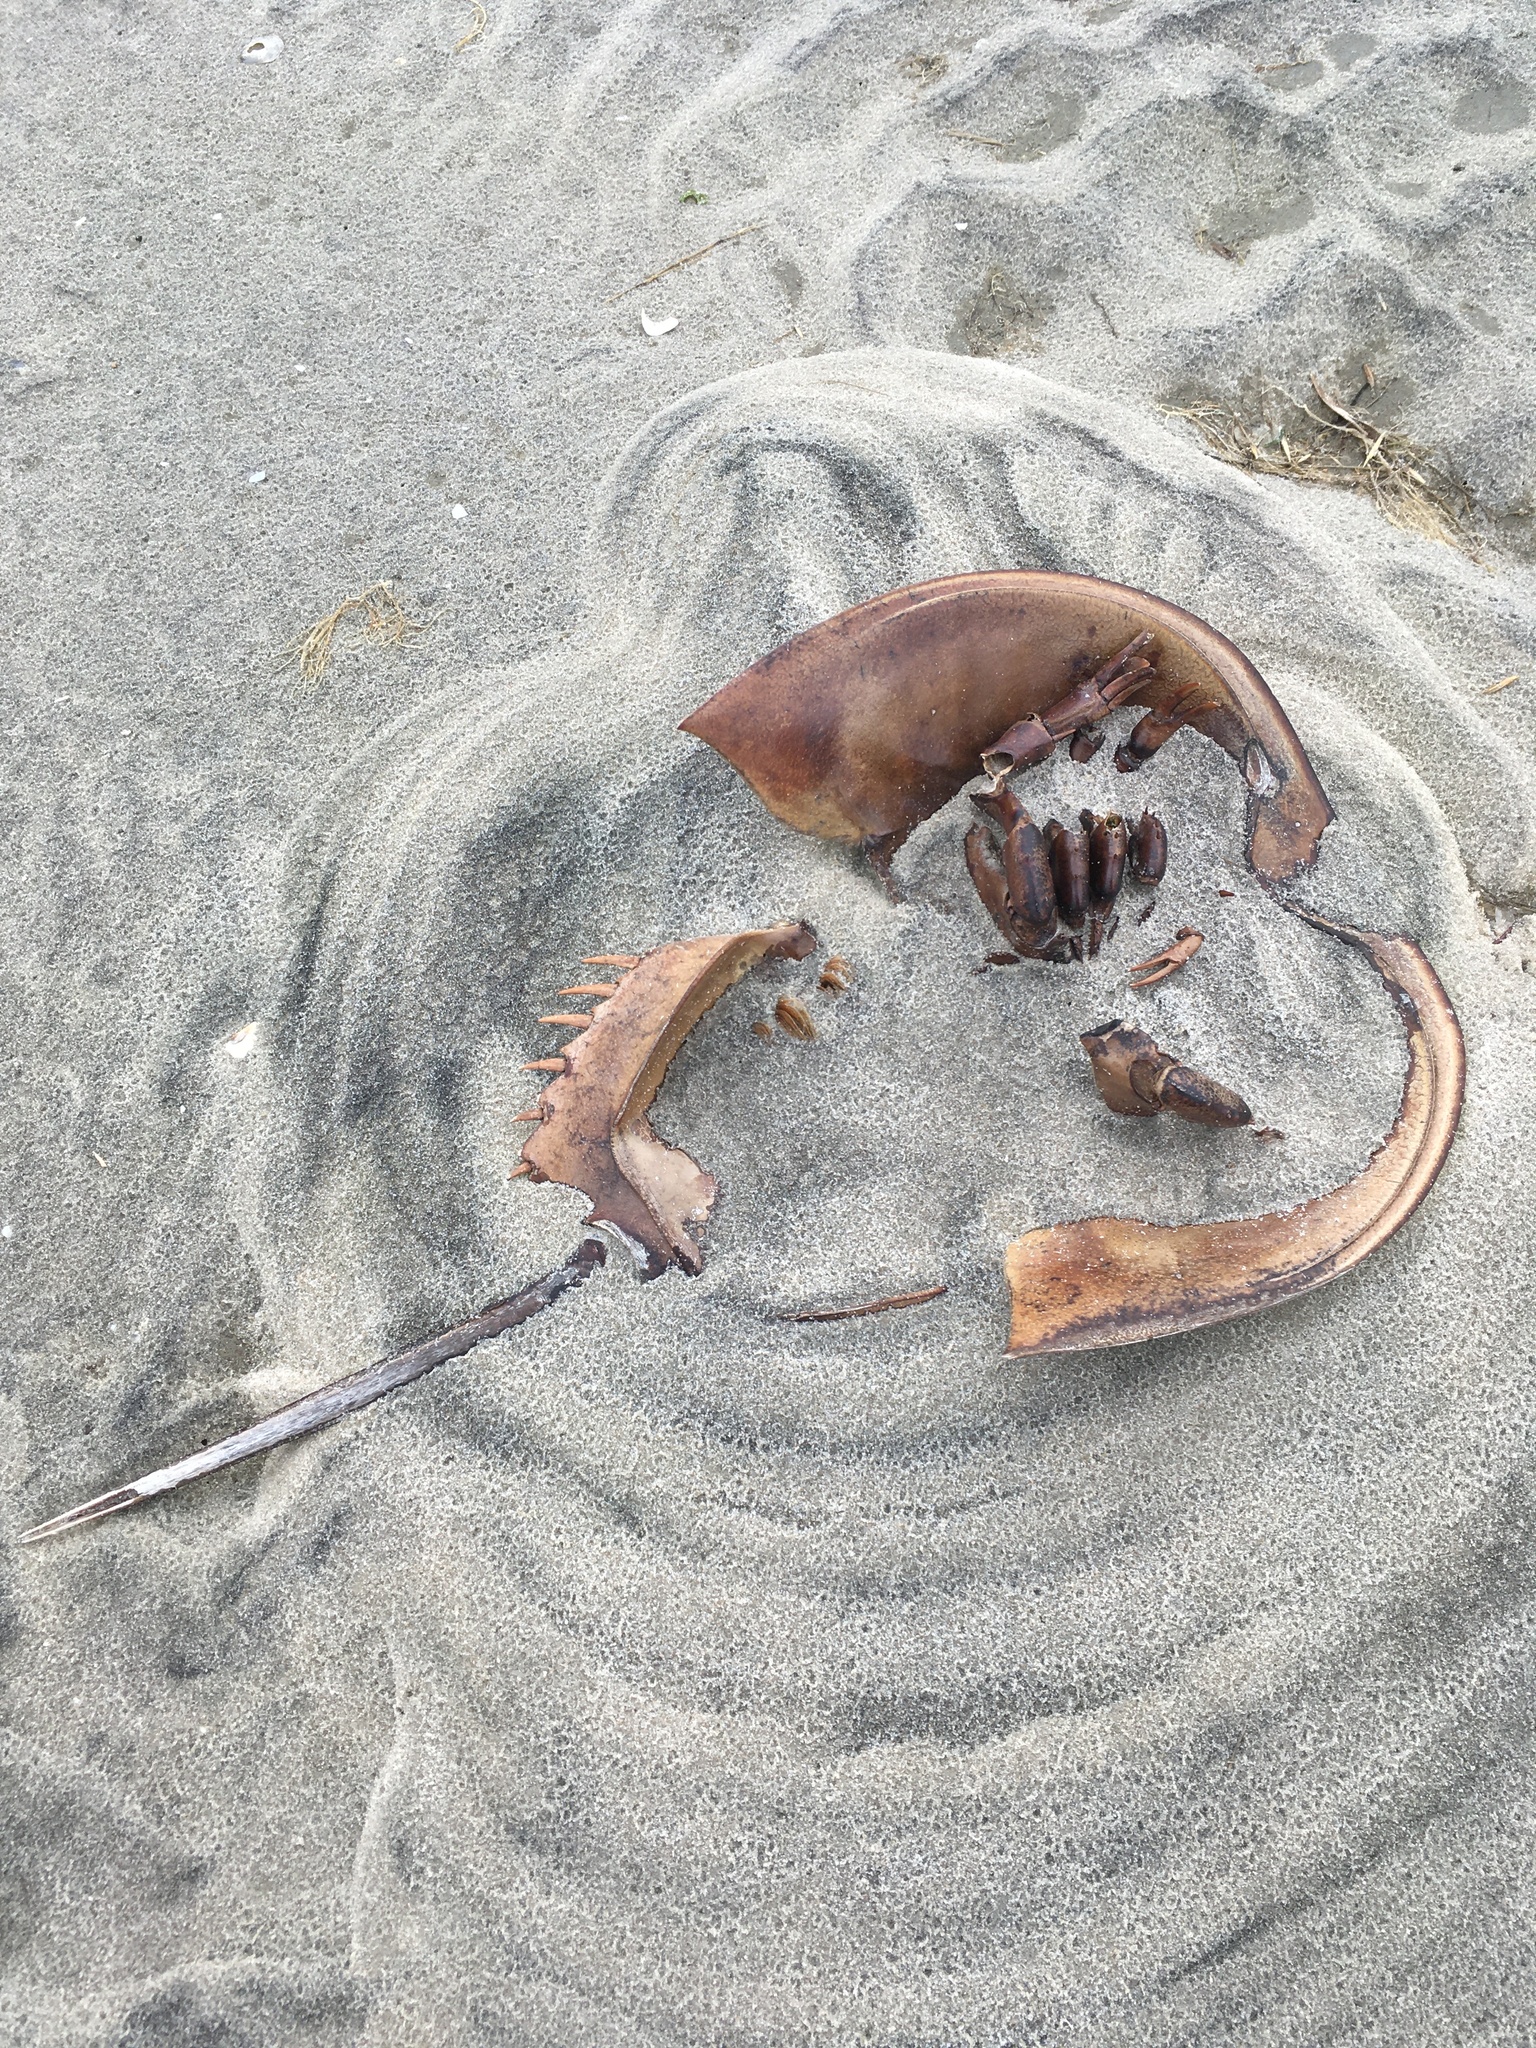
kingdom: Animalia
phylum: Arthropoda
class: Merostomata
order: Xiphosurida
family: Limulidae
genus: Limulus
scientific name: Limulus polyphemus
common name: Horseshoe crab
